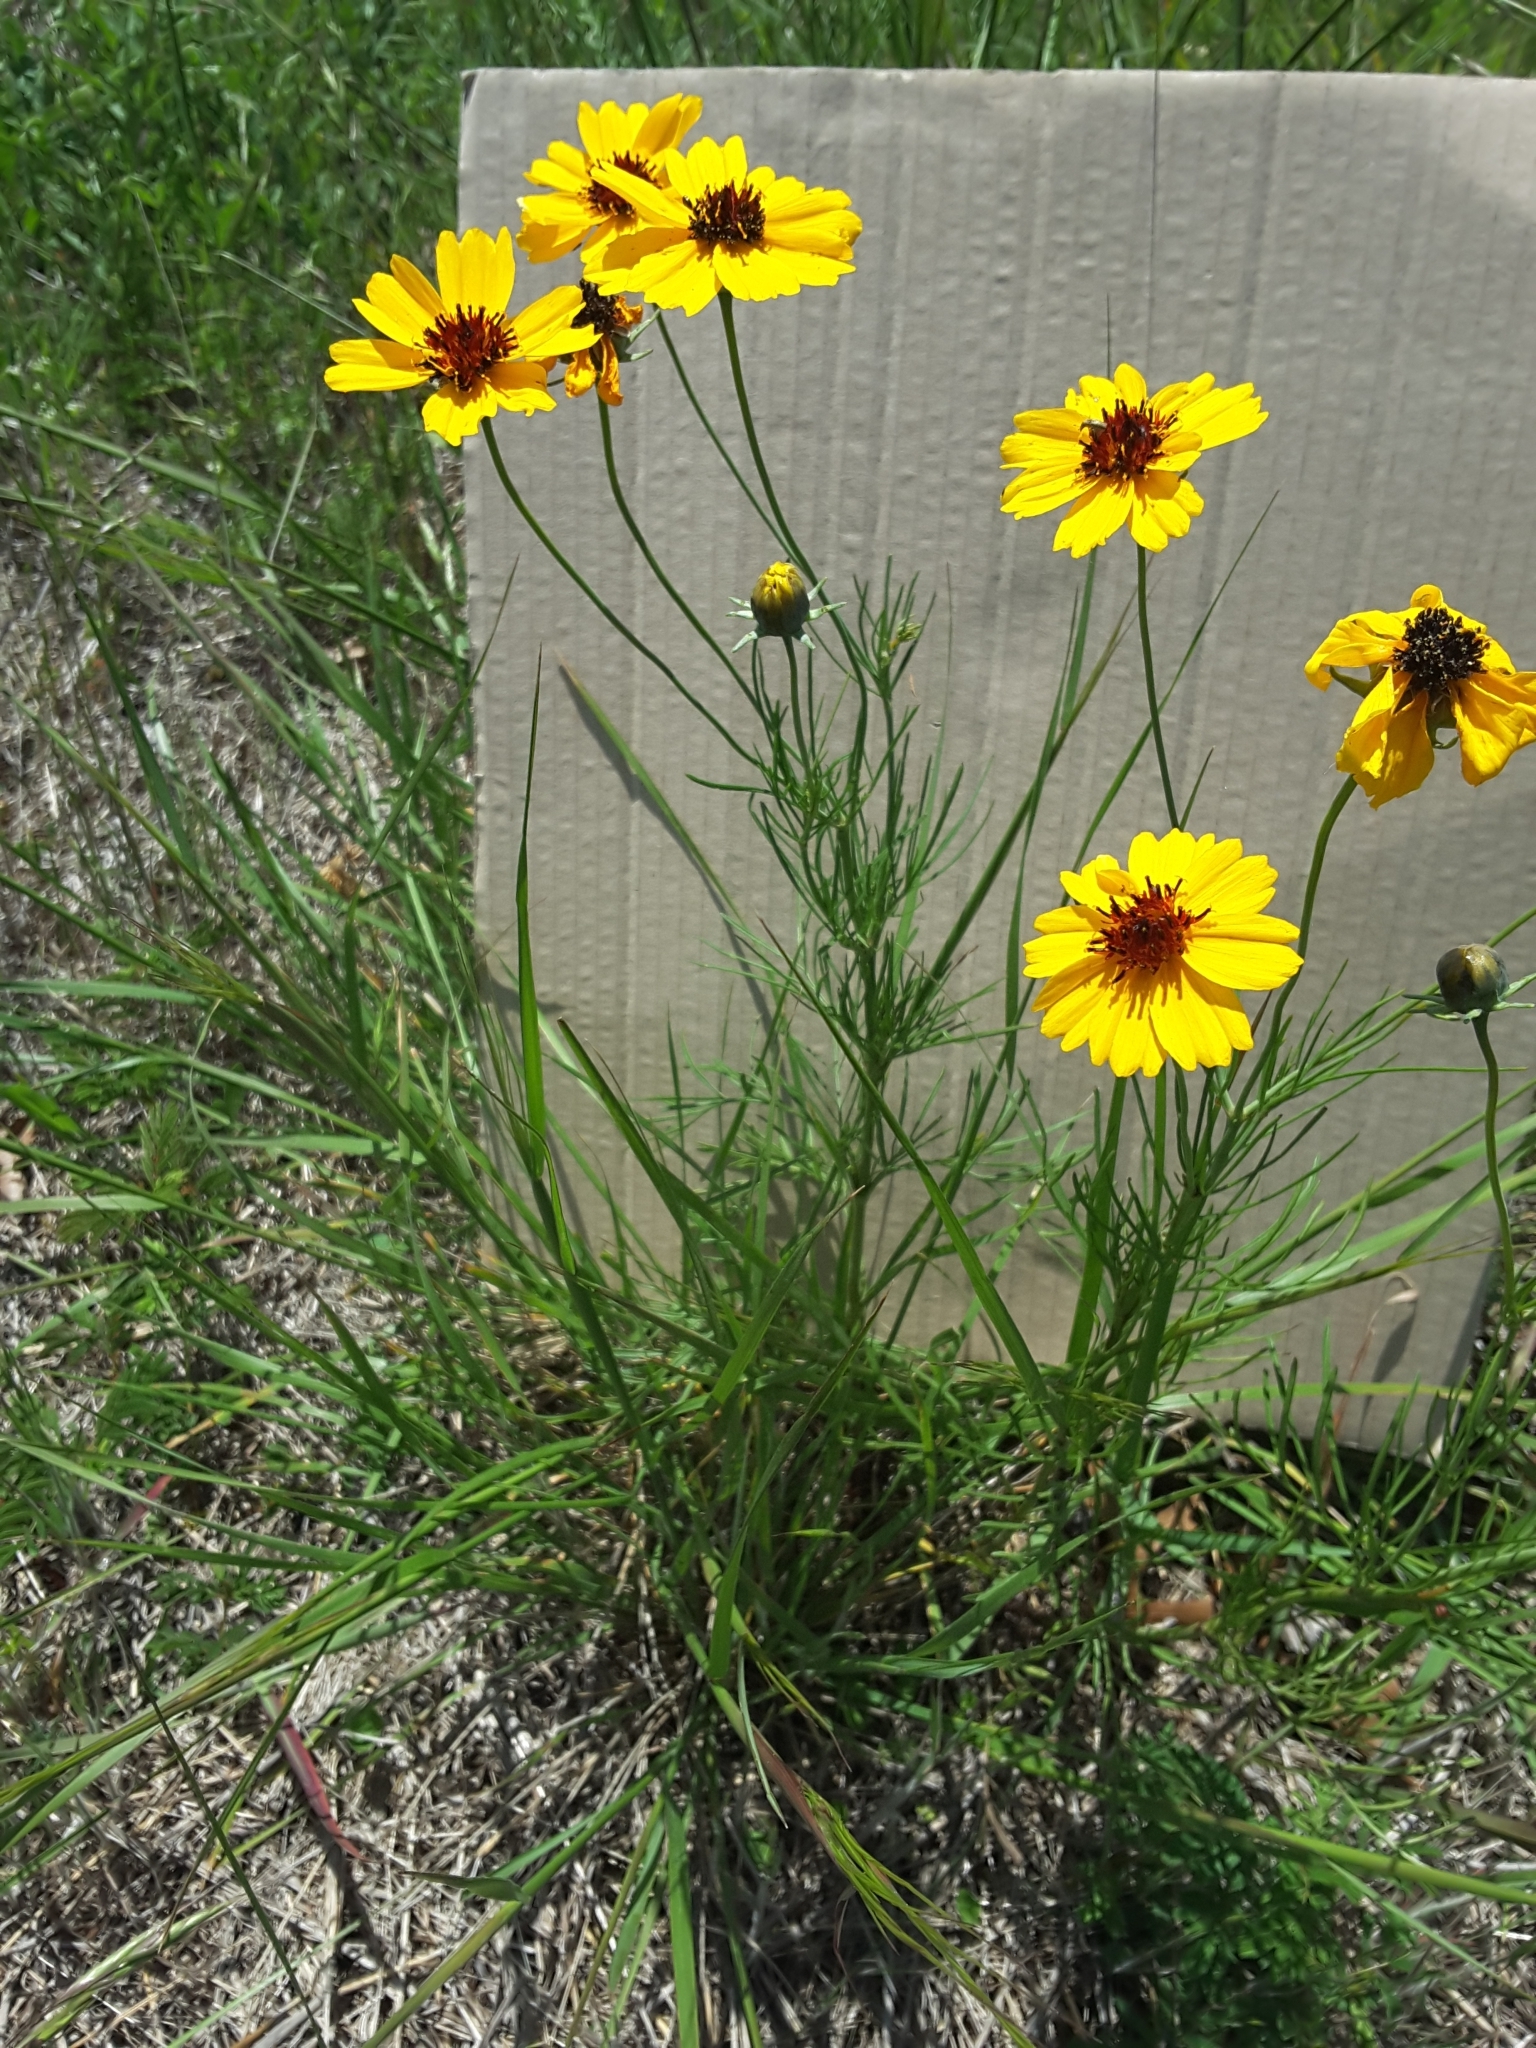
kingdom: Plantae
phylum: Tracheophyta
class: Magnoliopsida
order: Asterales
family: Asteraceae
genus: Thelesperma
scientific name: Thelesperma filifolium
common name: Stiff greenthread
